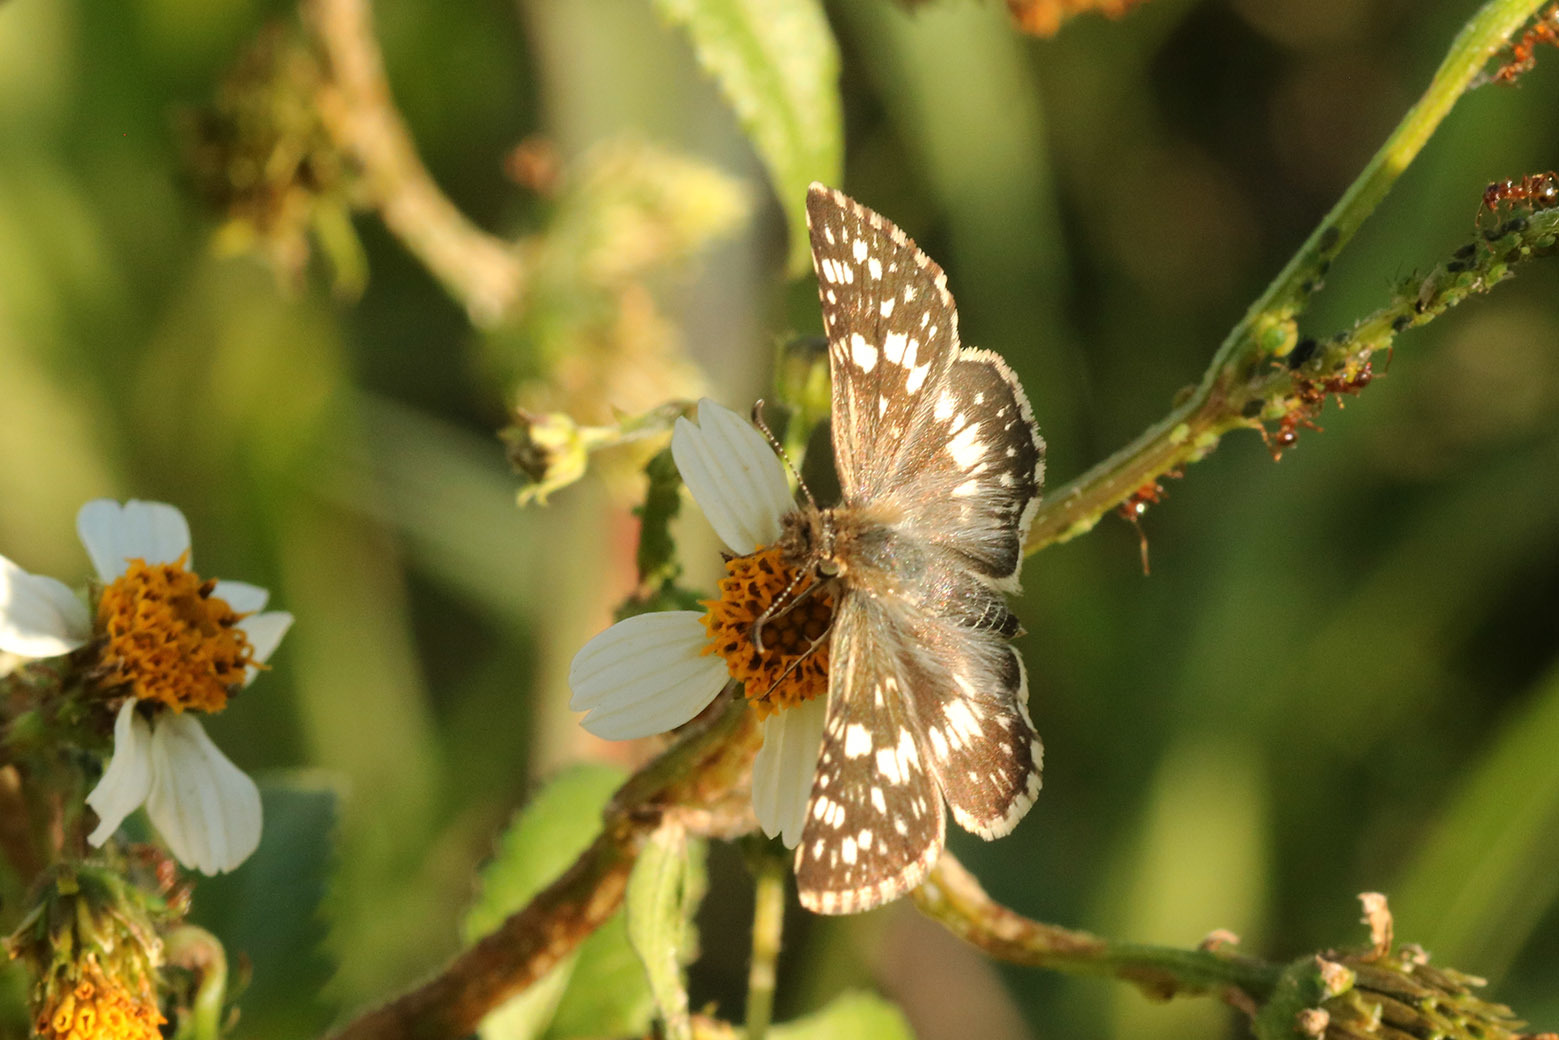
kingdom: Animalia
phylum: Arthropoda
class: Insecta
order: Lepidoptera
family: Hesperiidae
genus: Burnsius
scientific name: Burnsius orcynoides
